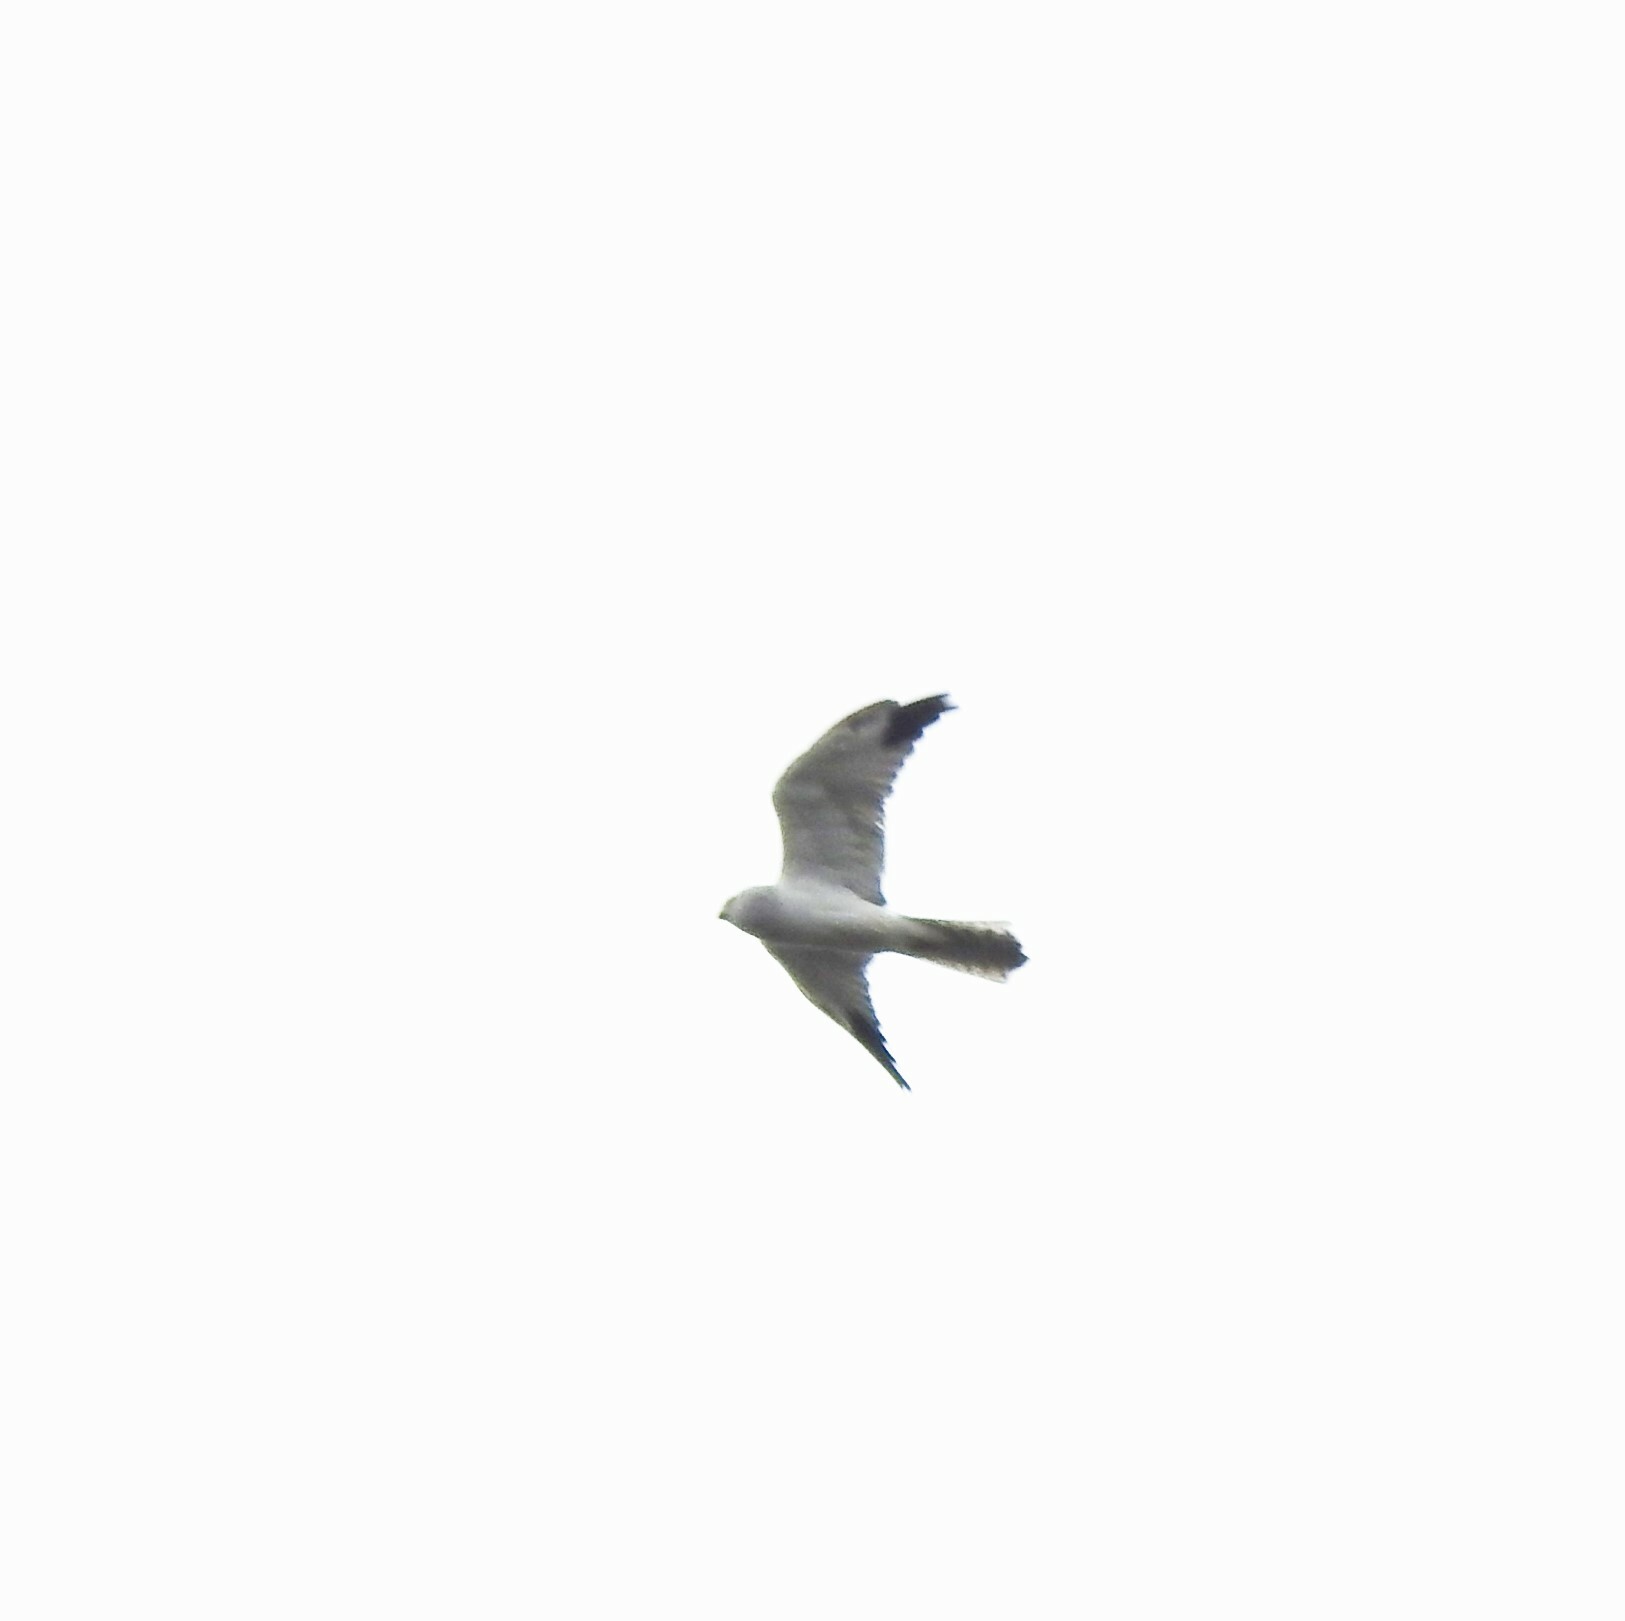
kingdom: Animalia
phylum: Chordata
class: Aves
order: Accipitriformes
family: Accipitridae
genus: Circus
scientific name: Circus macrourus
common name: Pallid harrier
